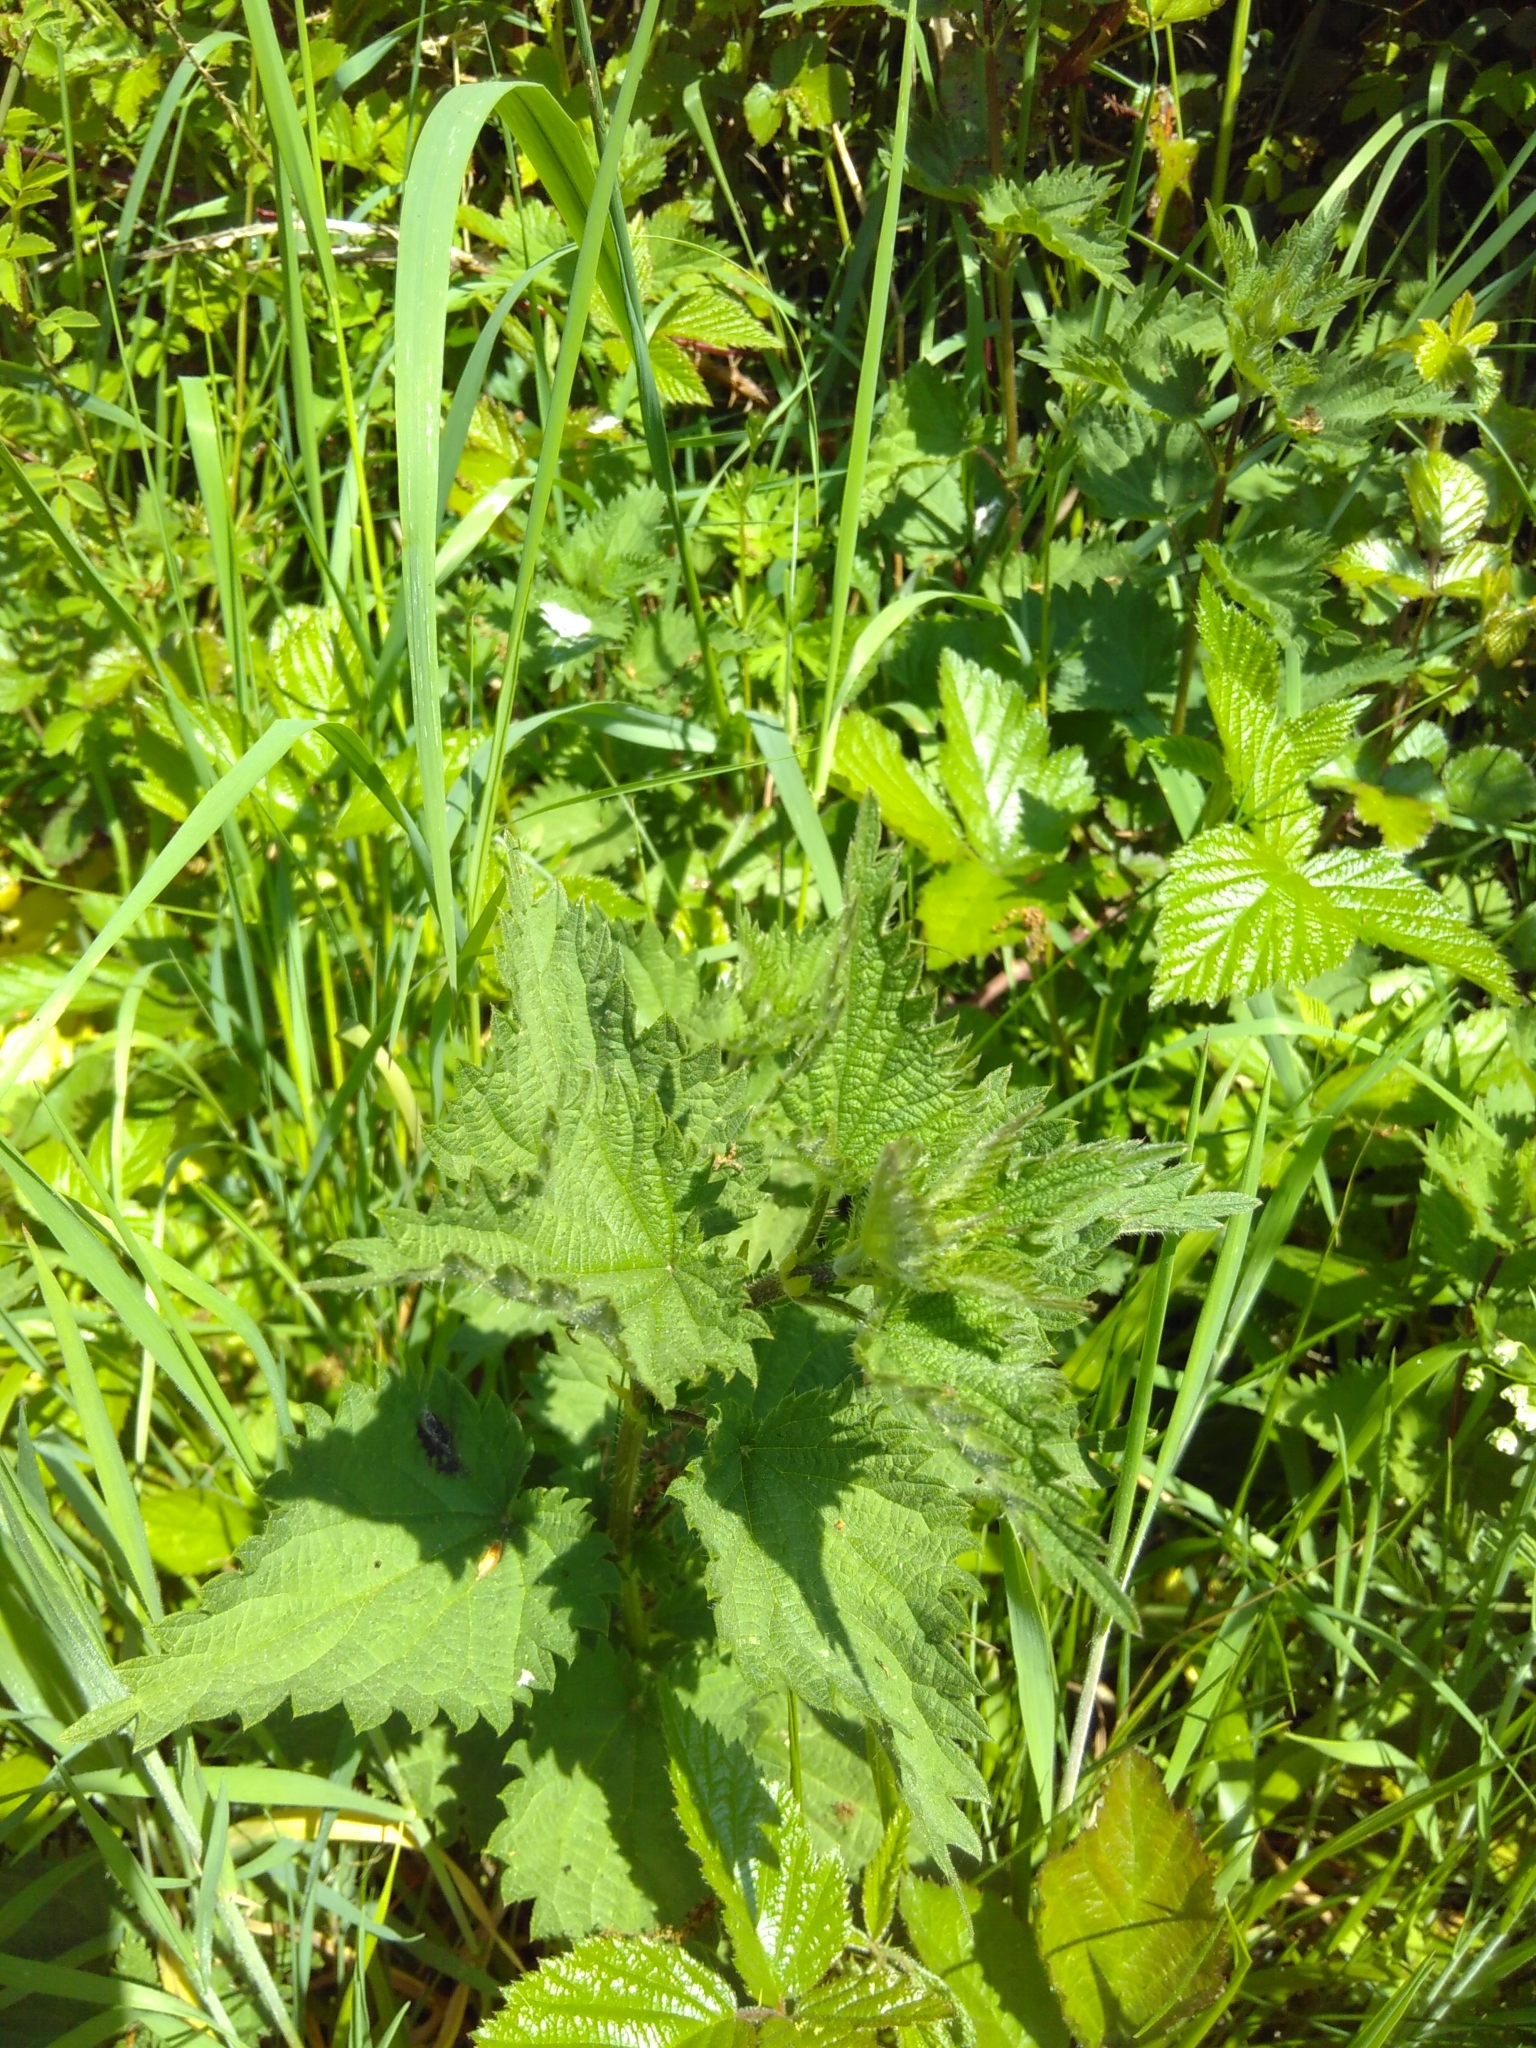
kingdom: Plantae
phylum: Tracheophyta
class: Magnoliopsida
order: Rosales
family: Urticaceae
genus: Urtica
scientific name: Urtica dioica
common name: Common nettle
